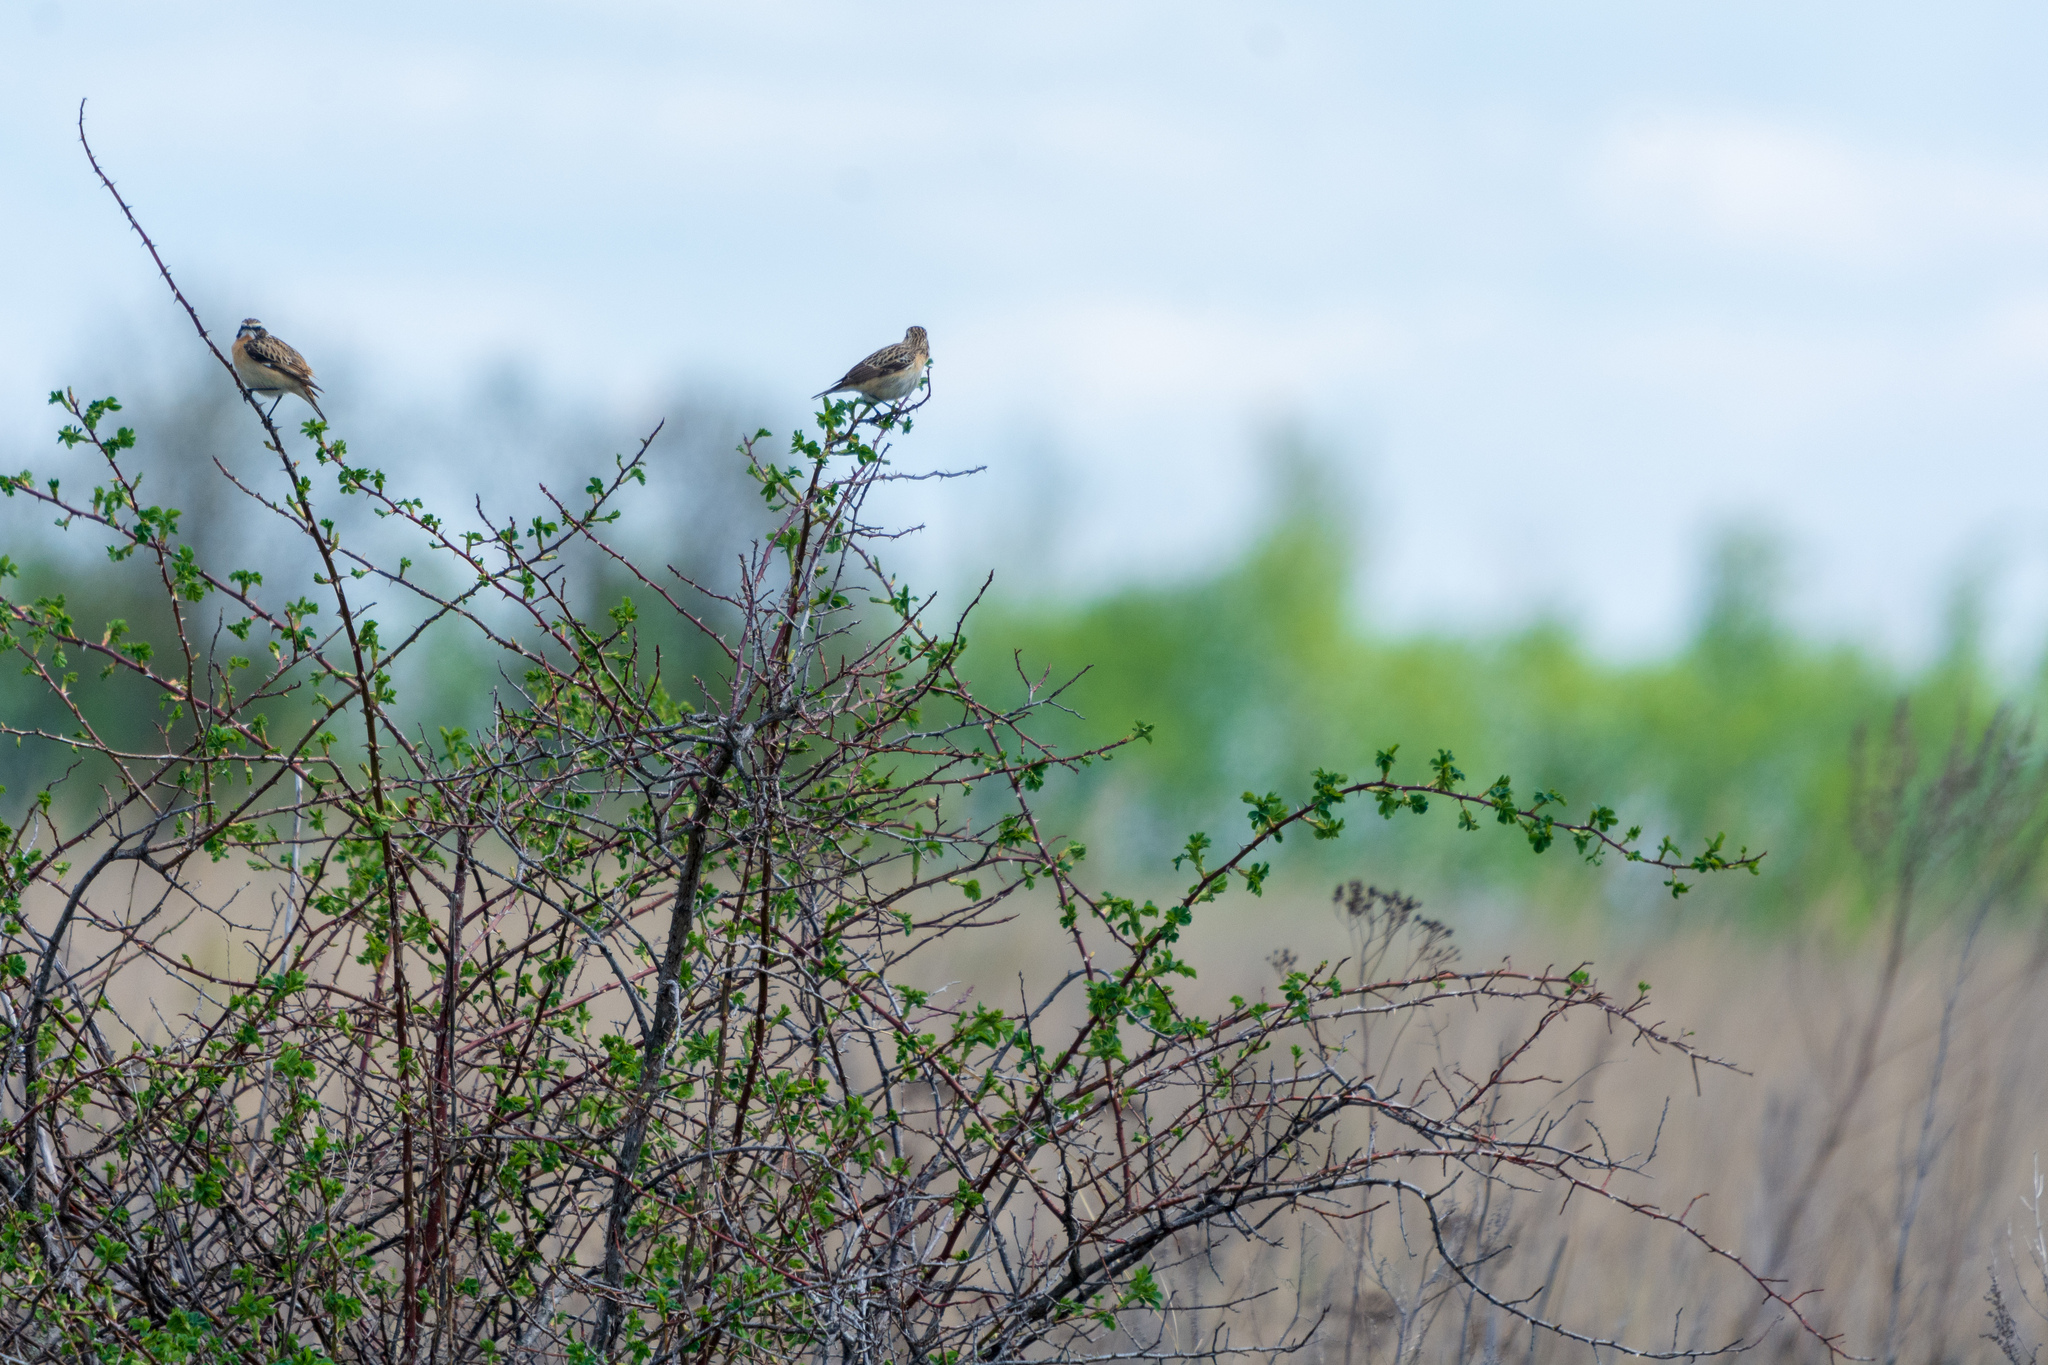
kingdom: Animalia
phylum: Chordata
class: Aves
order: Passeriformes
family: Muscicapidae
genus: Saxicola
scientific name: Saxicola rubetra
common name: Whinchat
